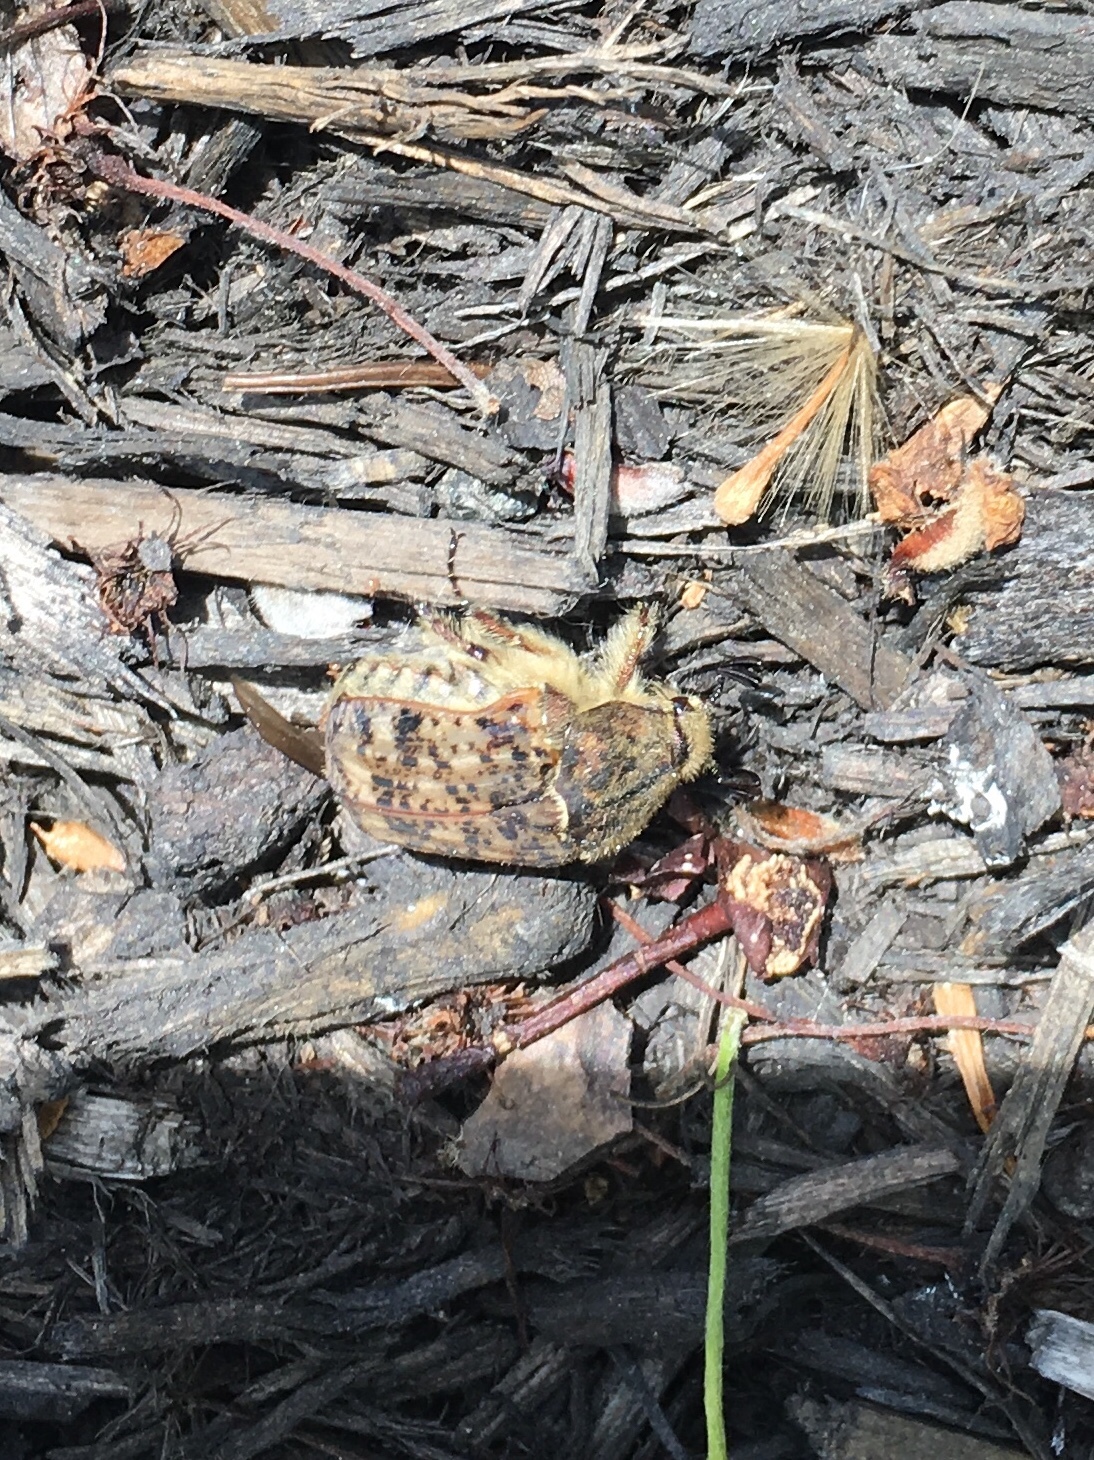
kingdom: Animalia
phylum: Arthropoda
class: Insecta
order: Coleoptera
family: Scarabaeidae
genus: Euphoria
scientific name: Euphoria inda
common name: Bumble flower beetle
